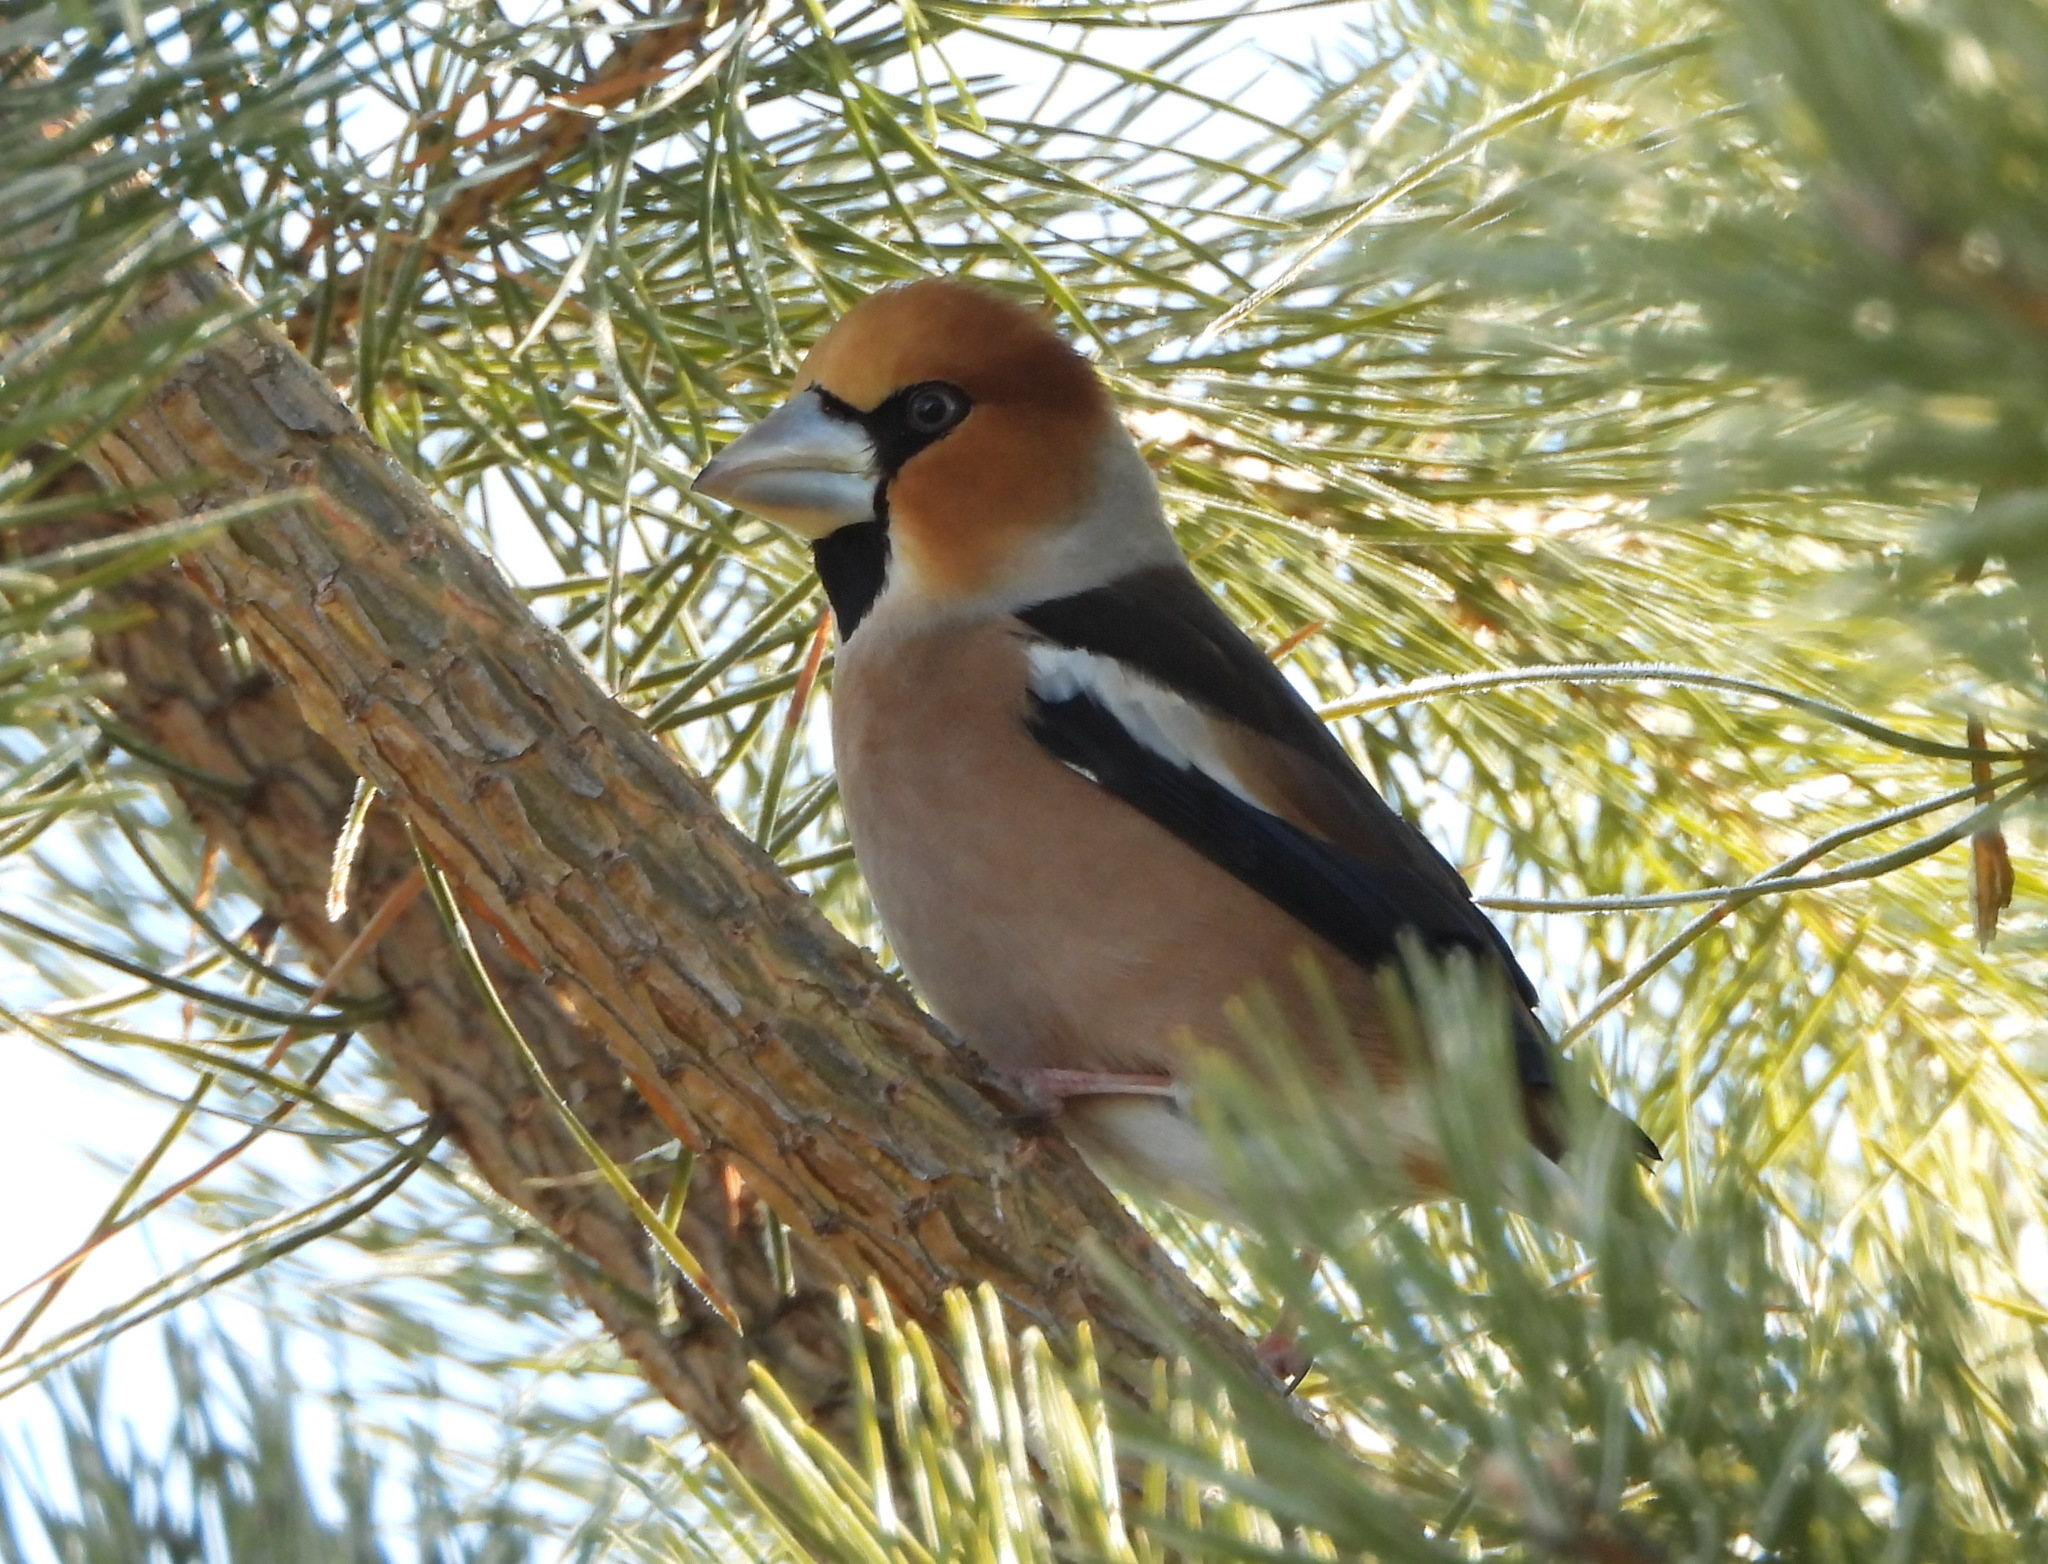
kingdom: Animalia
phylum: Chordata
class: Aves
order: Passeriformes
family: Fringillidae
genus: Coccothraustes
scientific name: Coccothraustes coccothraustes
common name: Hawfinch
